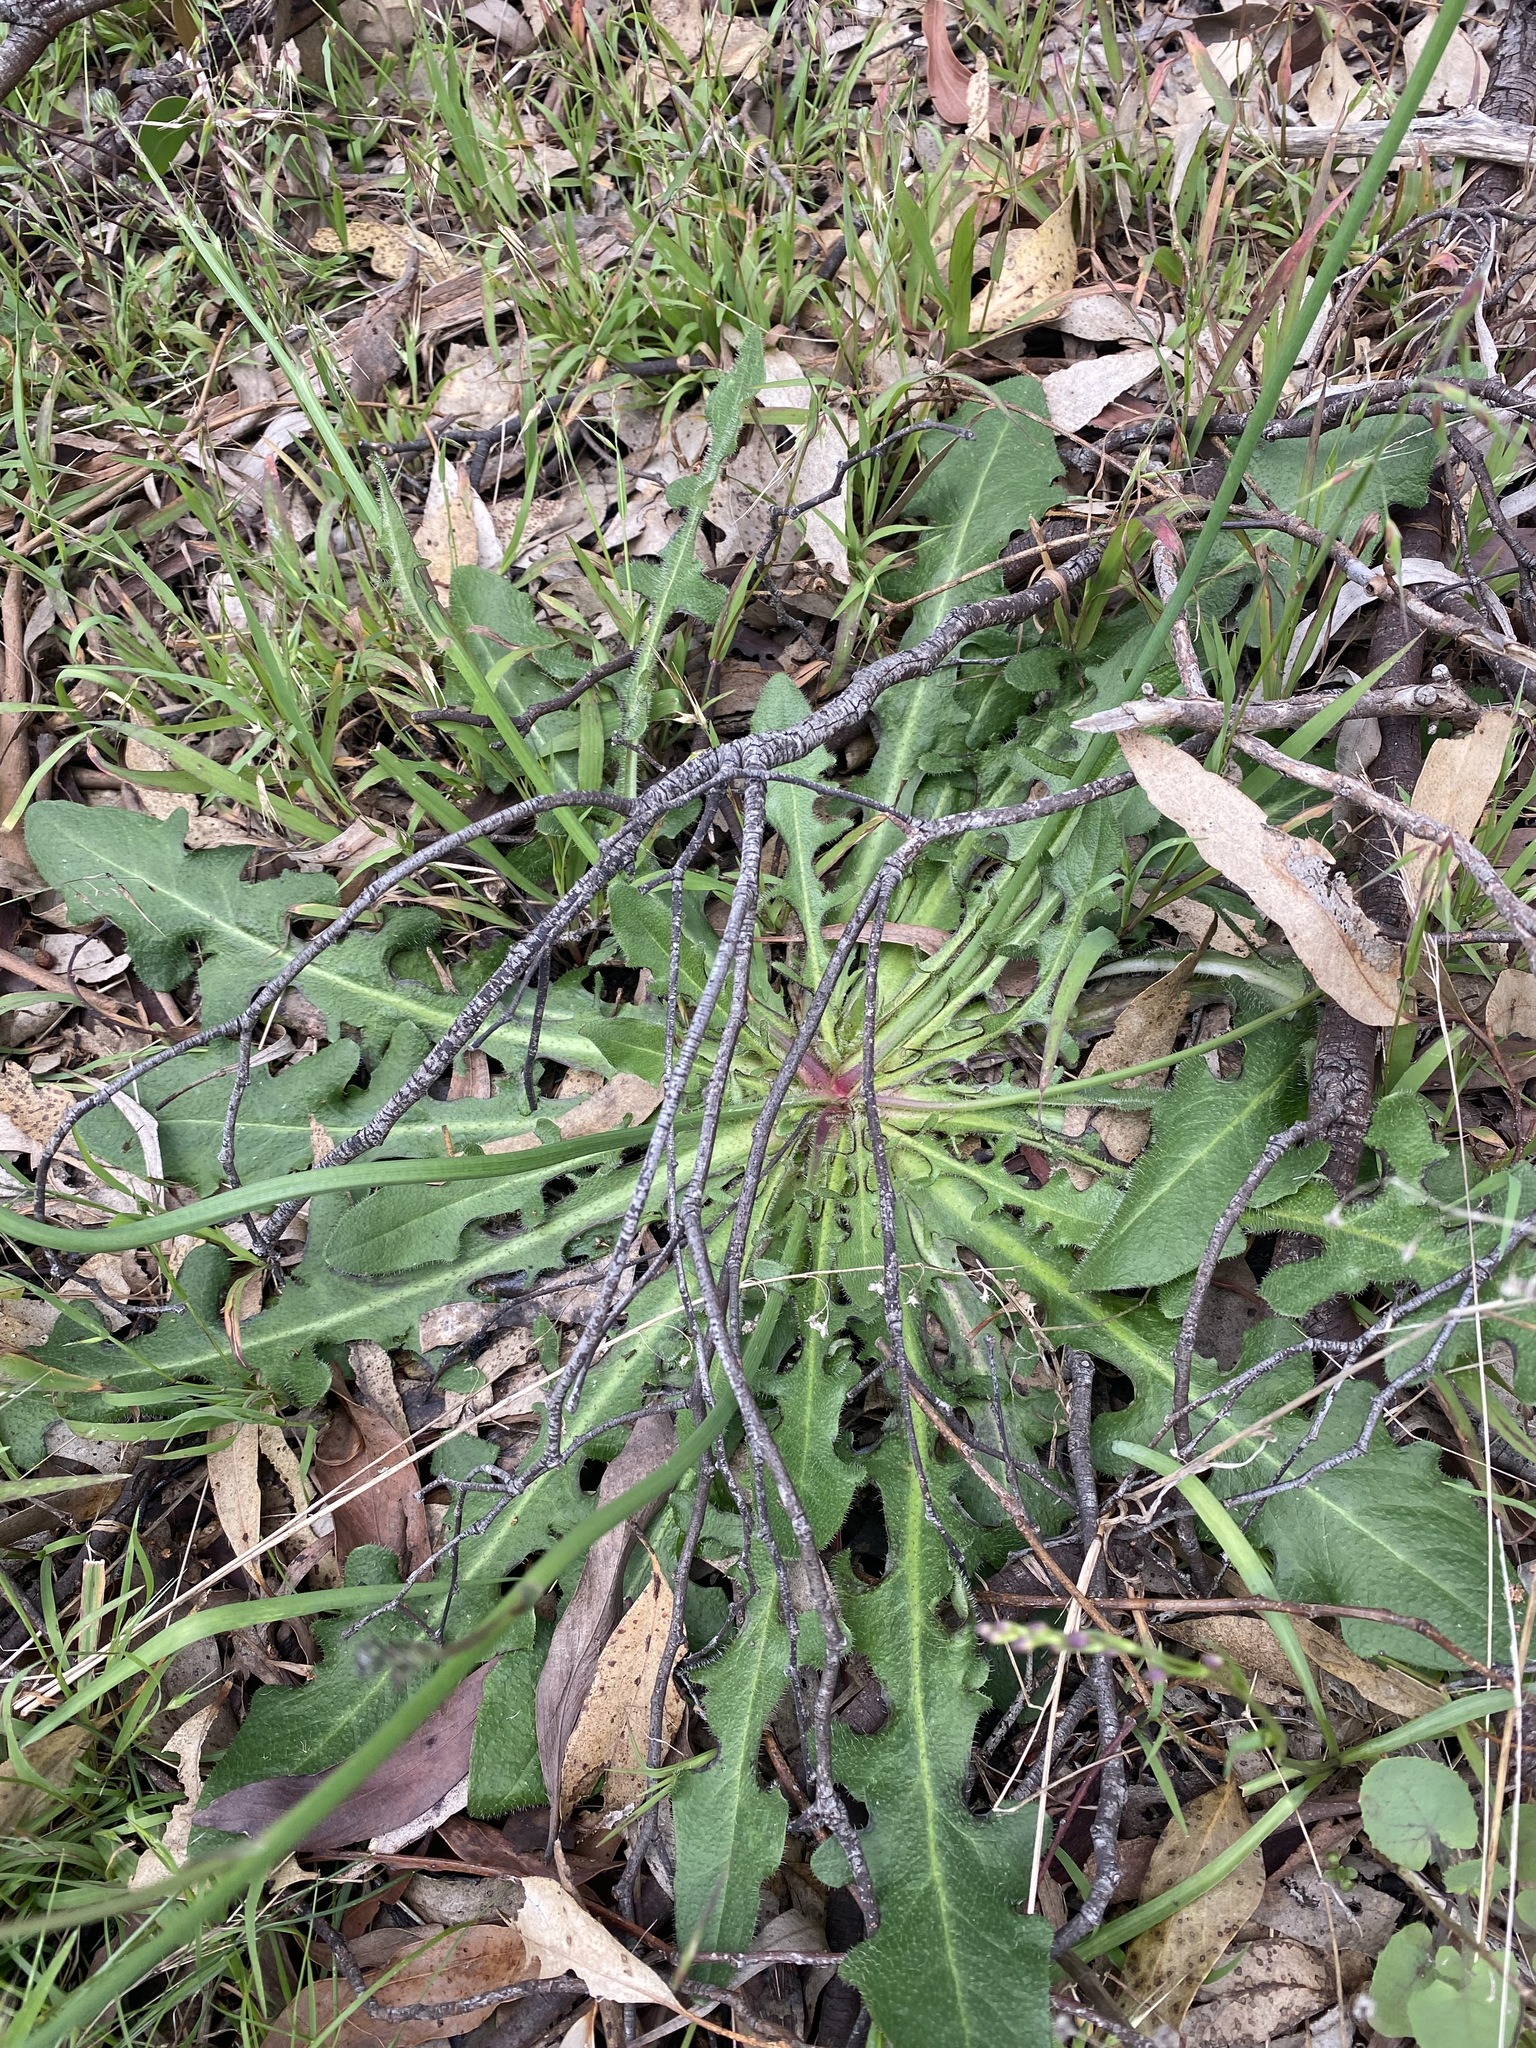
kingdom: Plantae
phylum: Tracheophyta
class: Magnoliopsida
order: Asterales
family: Asteraceae
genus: Hypochaeris
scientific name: Hypochaeris radicata
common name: Flatweed
